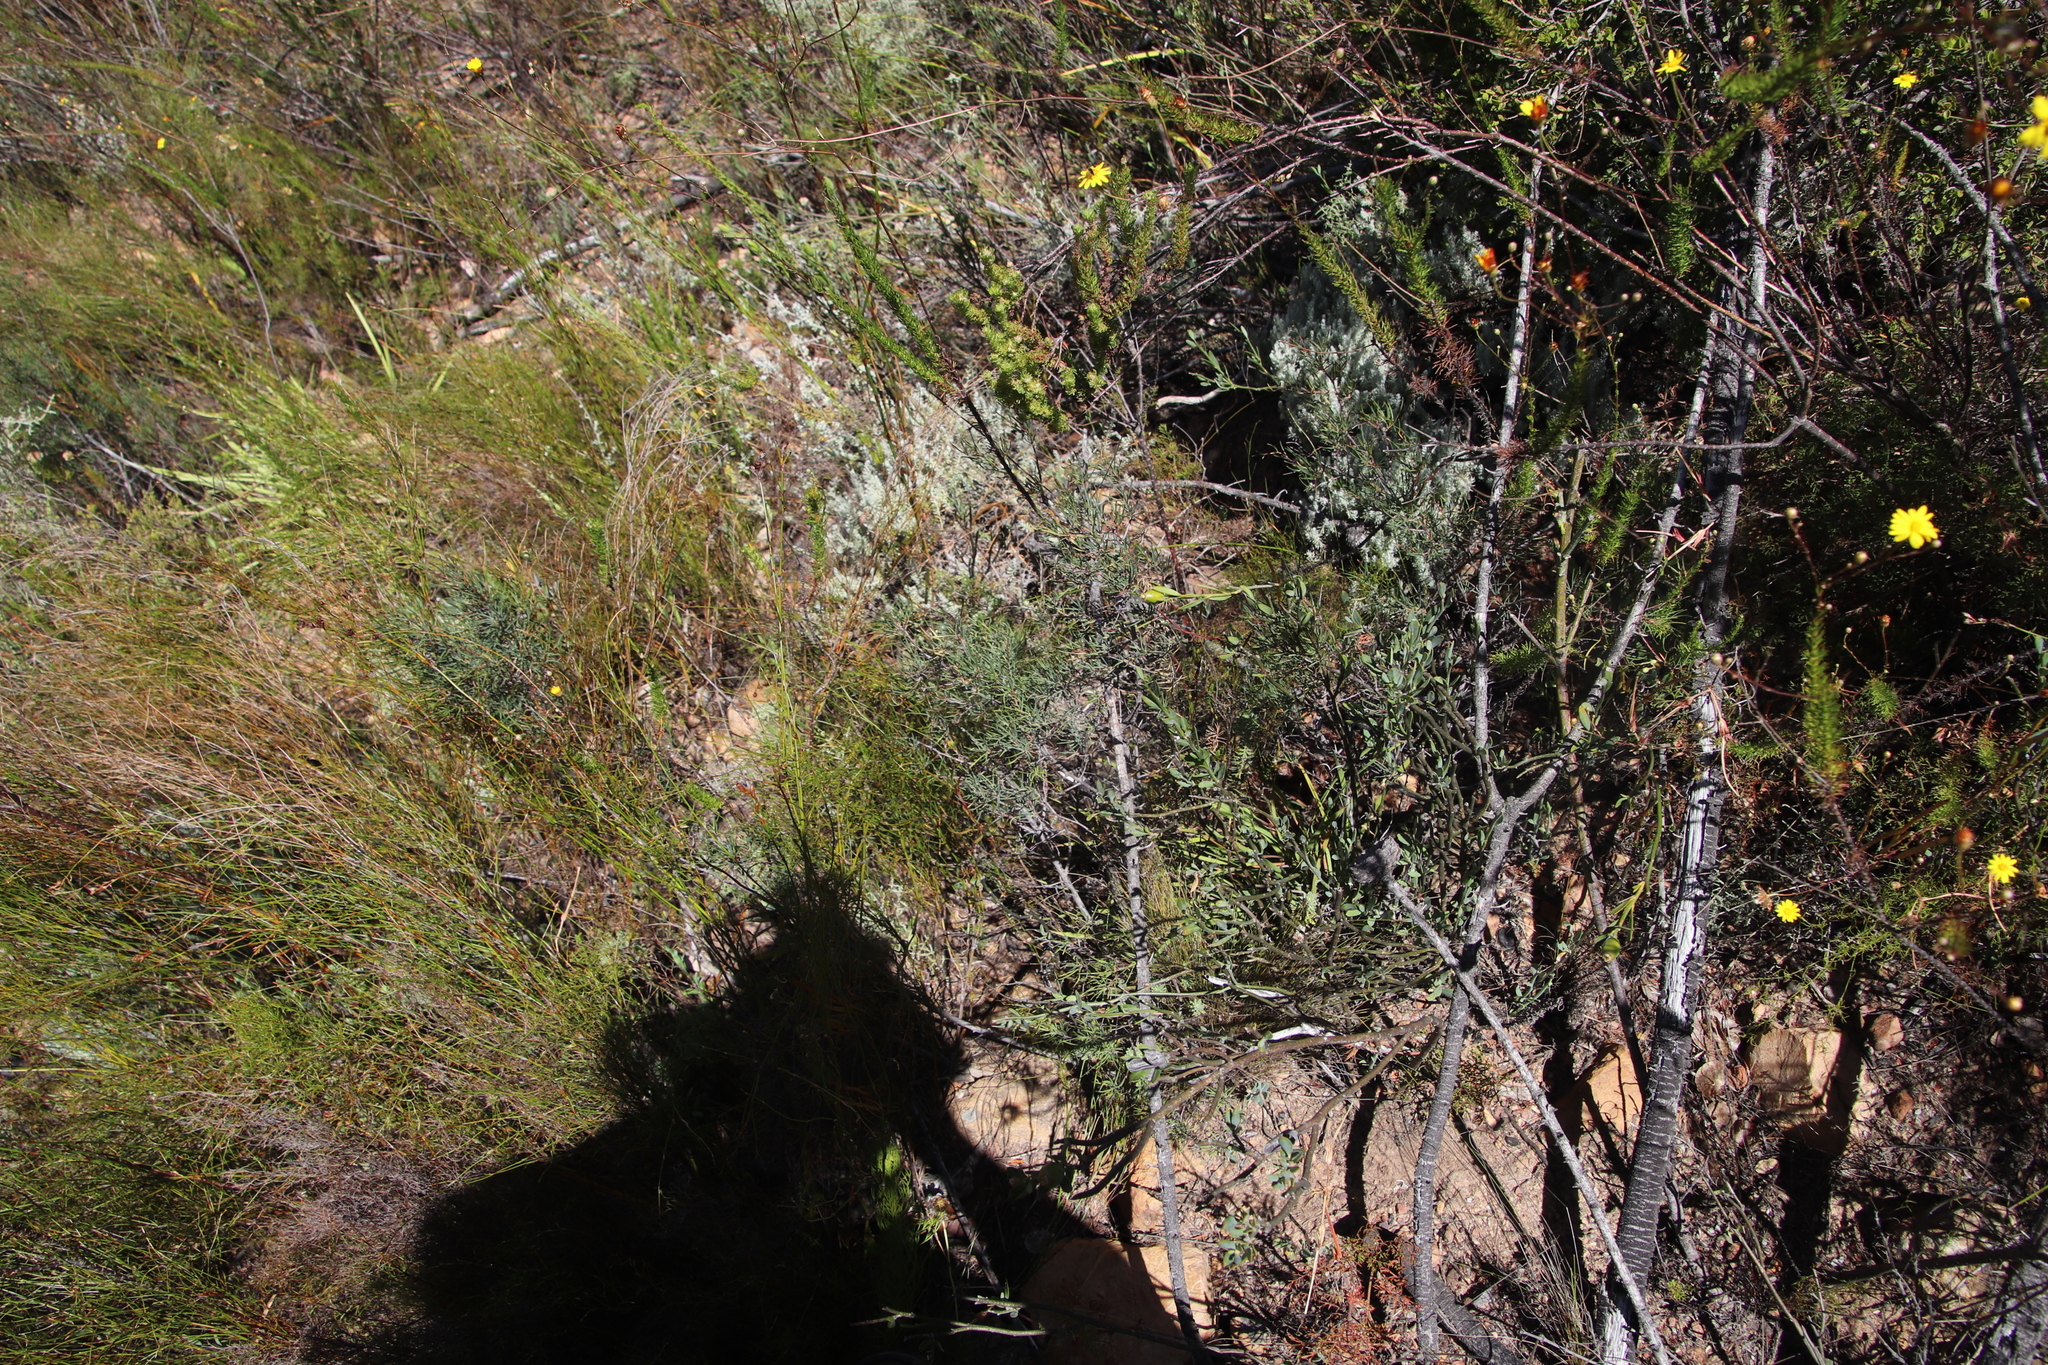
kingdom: Plantae
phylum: Tracheophyta
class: Magnoliopsida
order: Sapindales
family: Anacardiaceae
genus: Searsia
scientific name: Searsia rosmarinifolia
